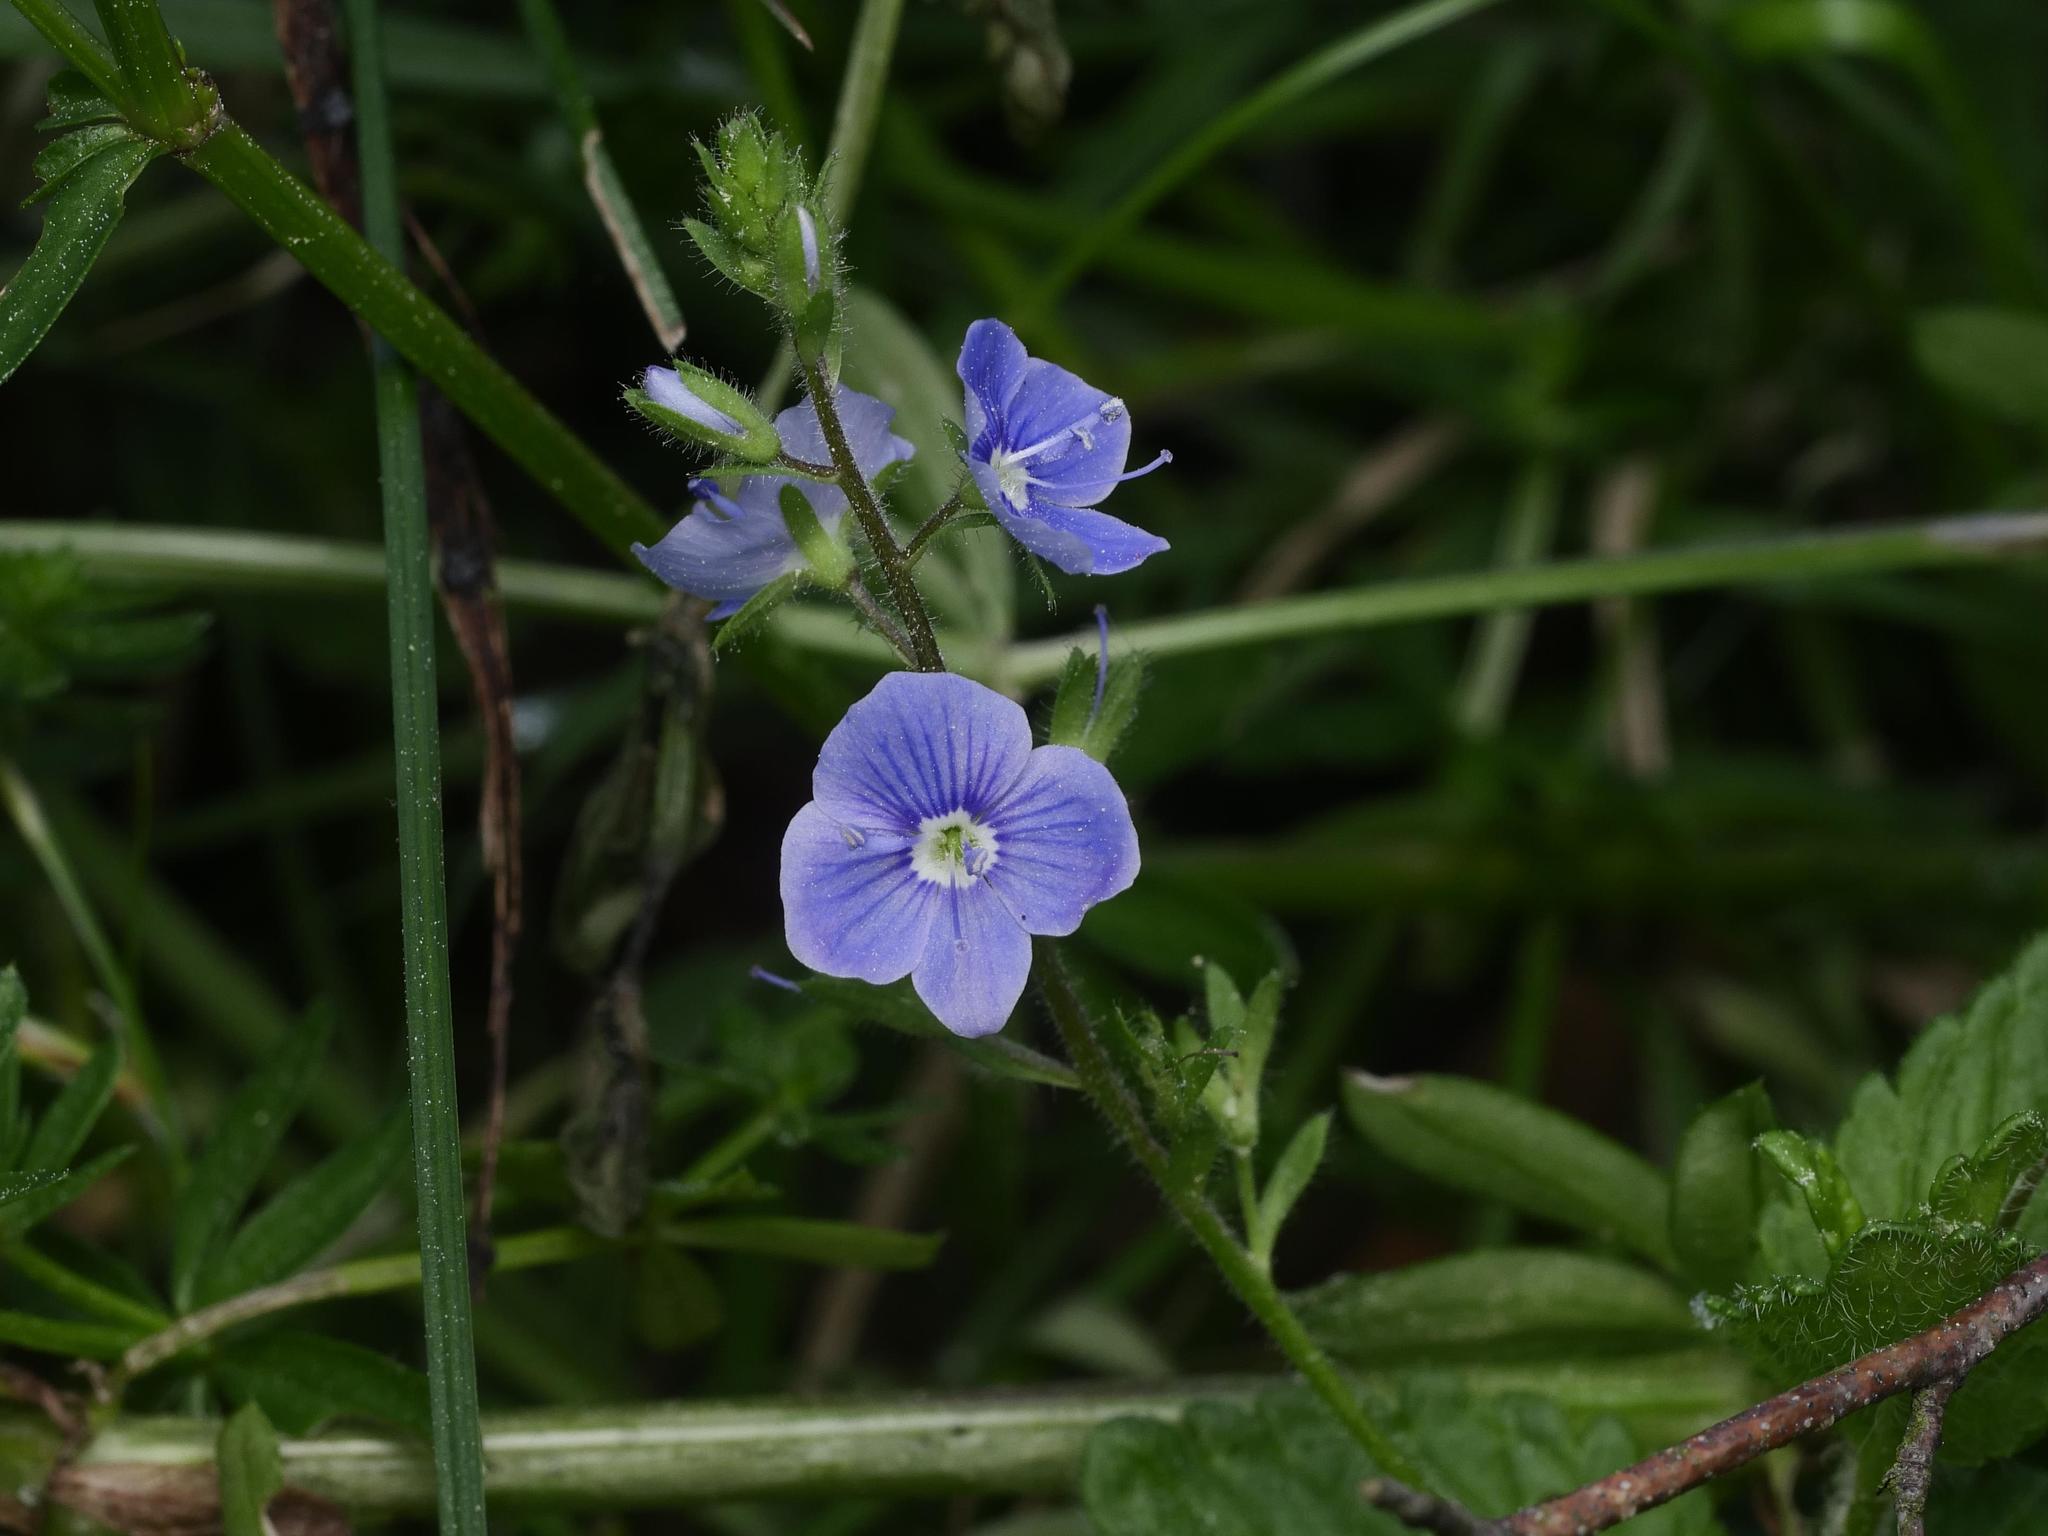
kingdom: Plantae
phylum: Tracheophyta
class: Magnoliopsida
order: Lamiales
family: Plantaginaceae
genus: Veronica
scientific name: Veronica chamaedrys
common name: Germander speedwell
